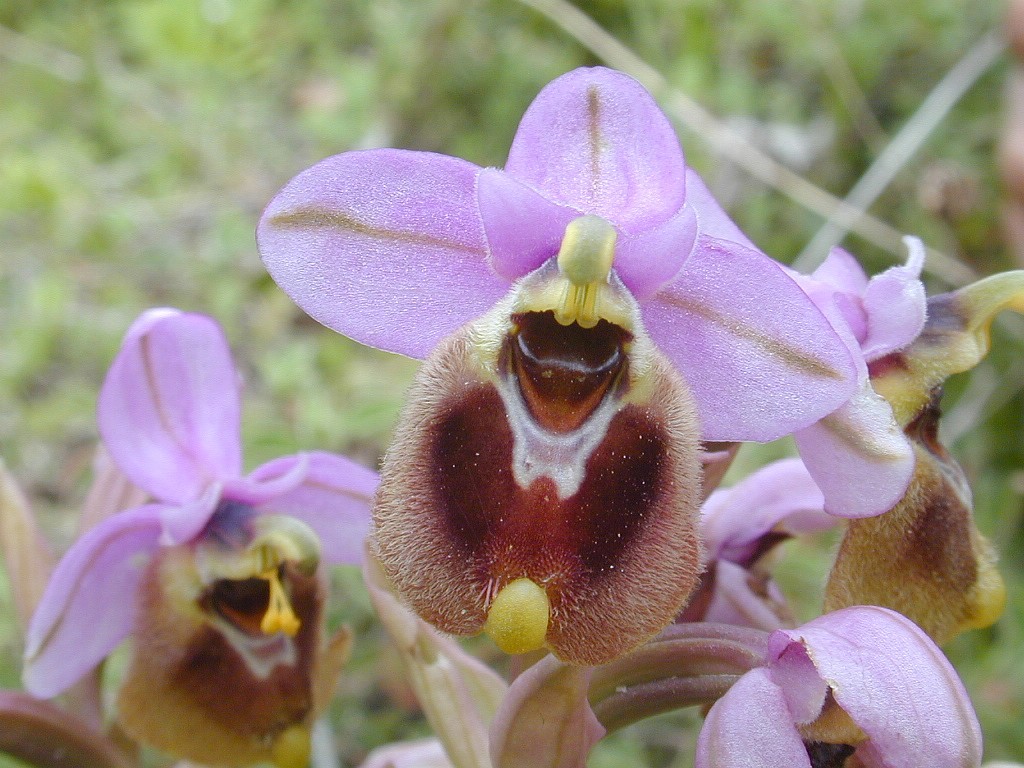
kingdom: Plantae
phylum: Tracheophyta
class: Liliopsida
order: Asparagales
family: Orchidaceae
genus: Ophrys
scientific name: Ophrys tenthredinifera
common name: Sawfly orchid
